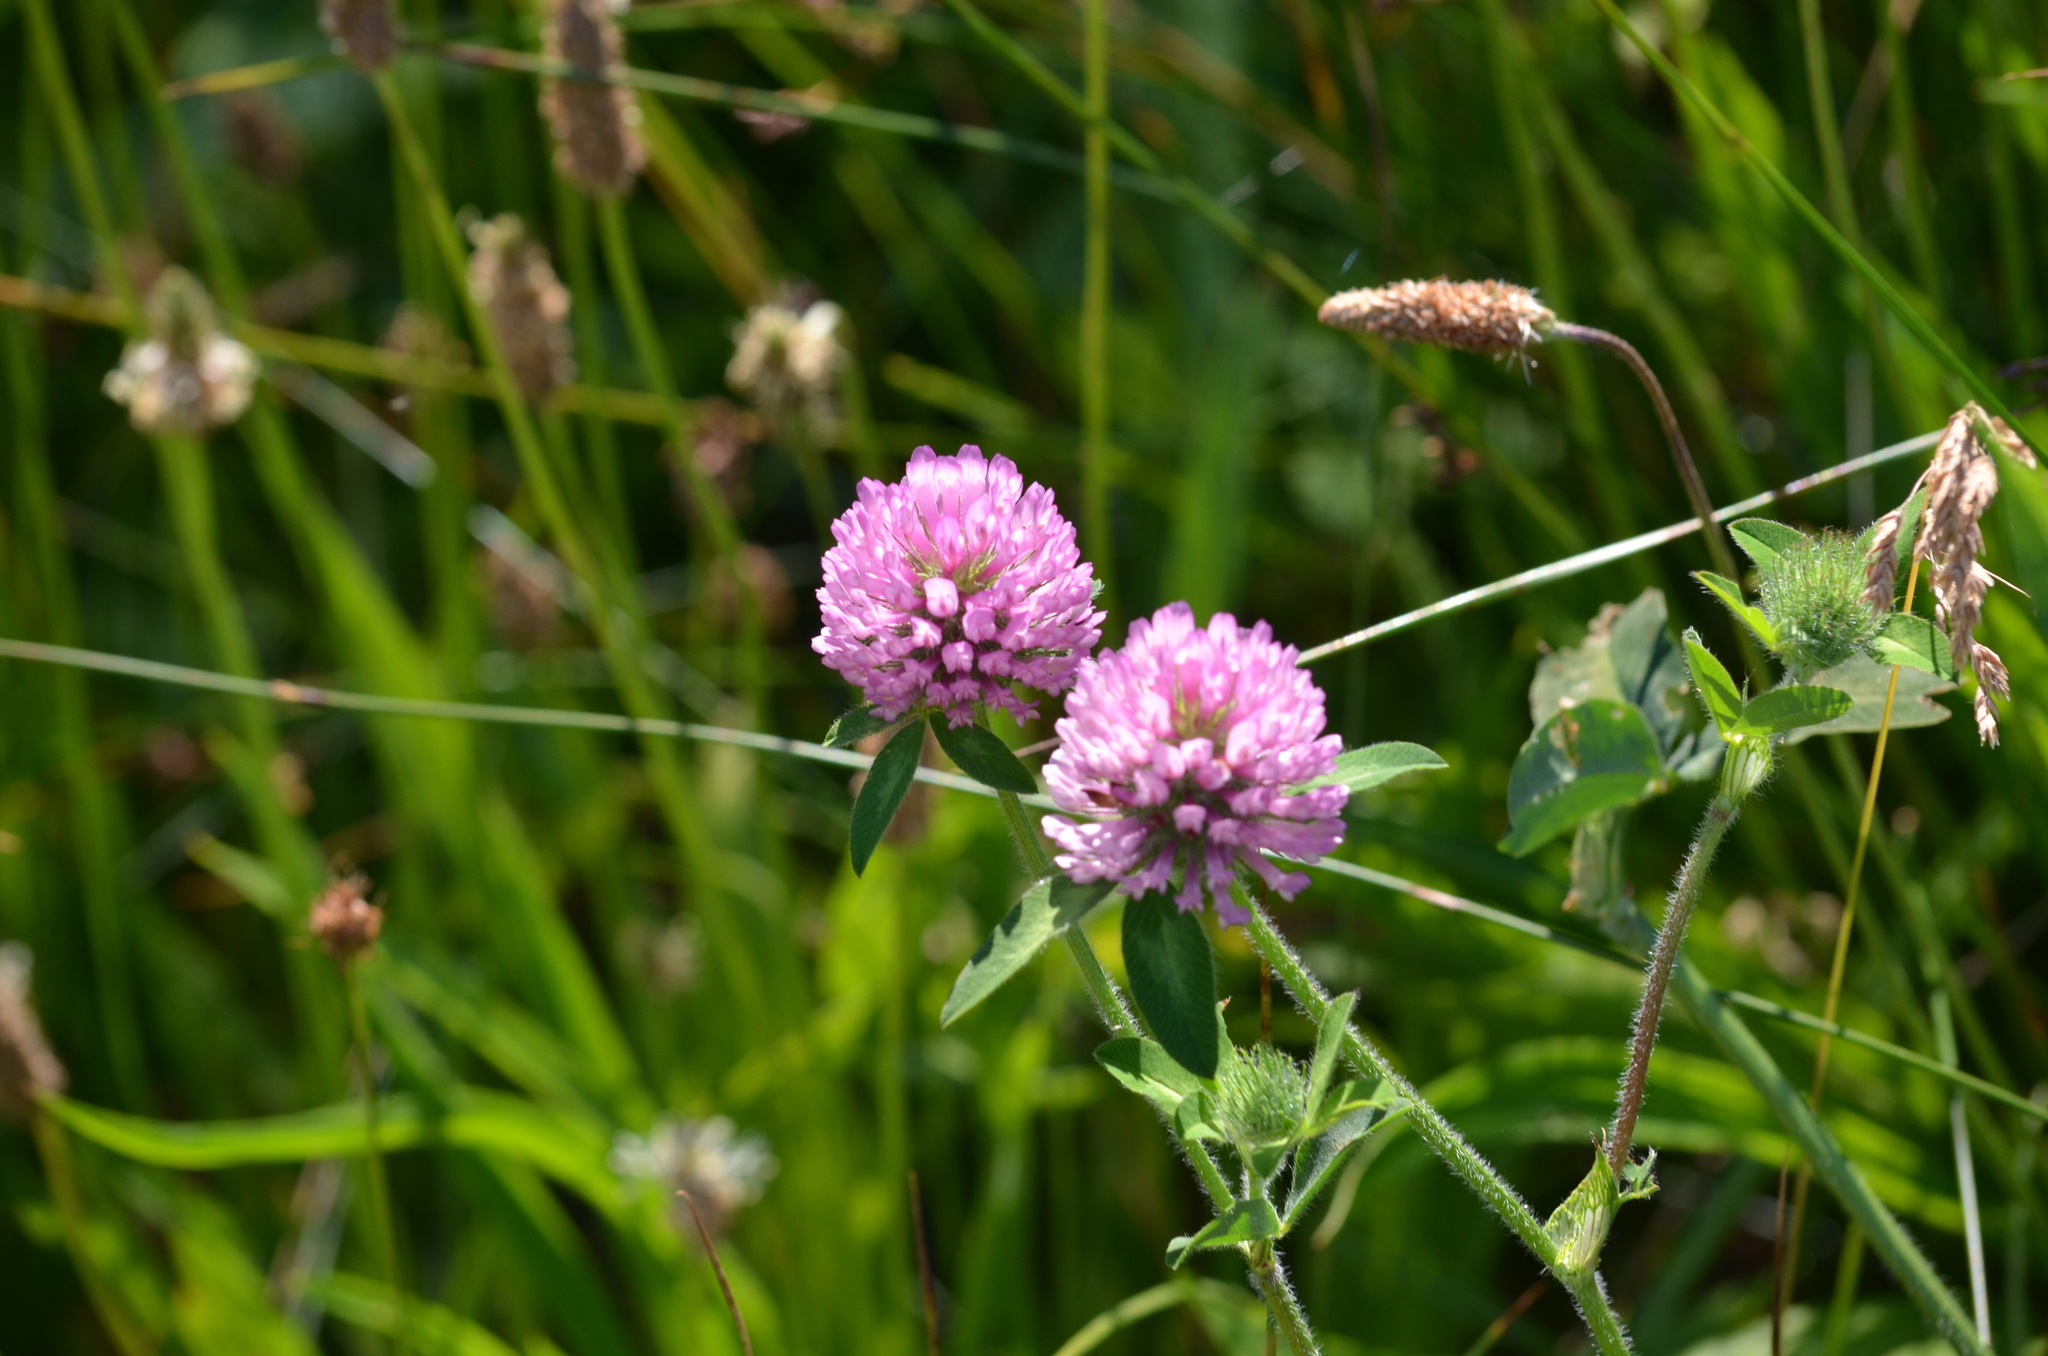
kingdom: Plantae
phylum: Tracheophyta
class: Magnoliopsida
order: Fabales
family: Fabaceae
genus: Trifolium
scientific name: Trifolium pratense
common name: Red clover
